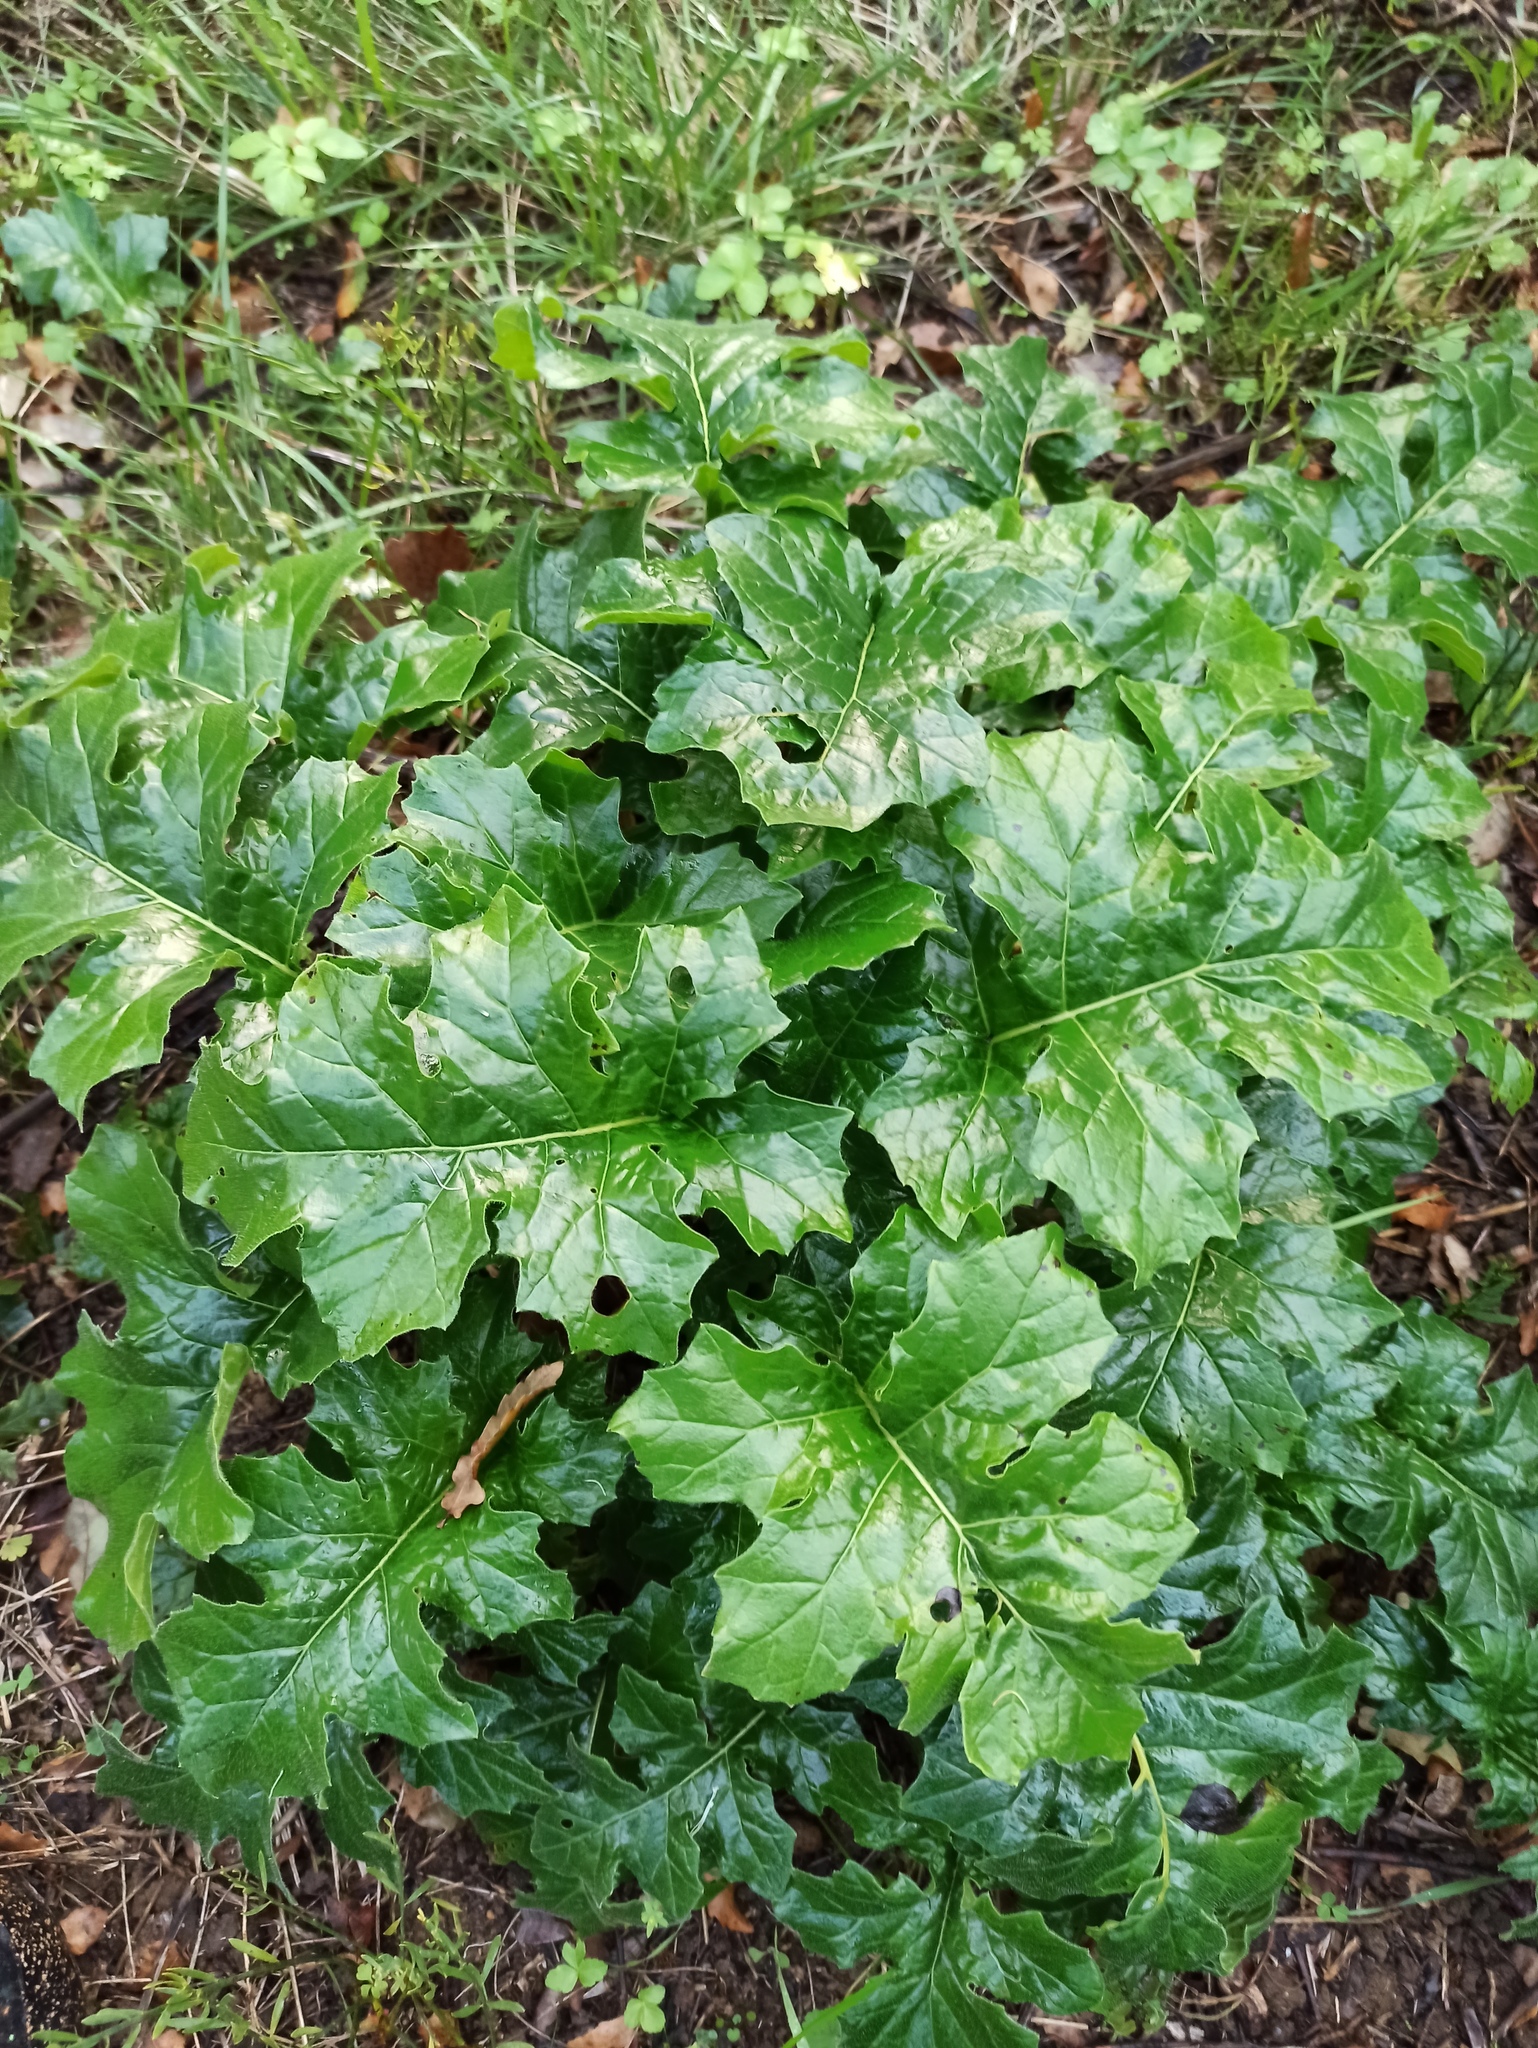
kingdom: Plantae
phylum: Tracheophyta
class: Magnoliopsida
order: Lamiales
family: Acanthaceae
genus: Acanthus
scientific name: Acanthus mollis
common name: Bear's-breech
